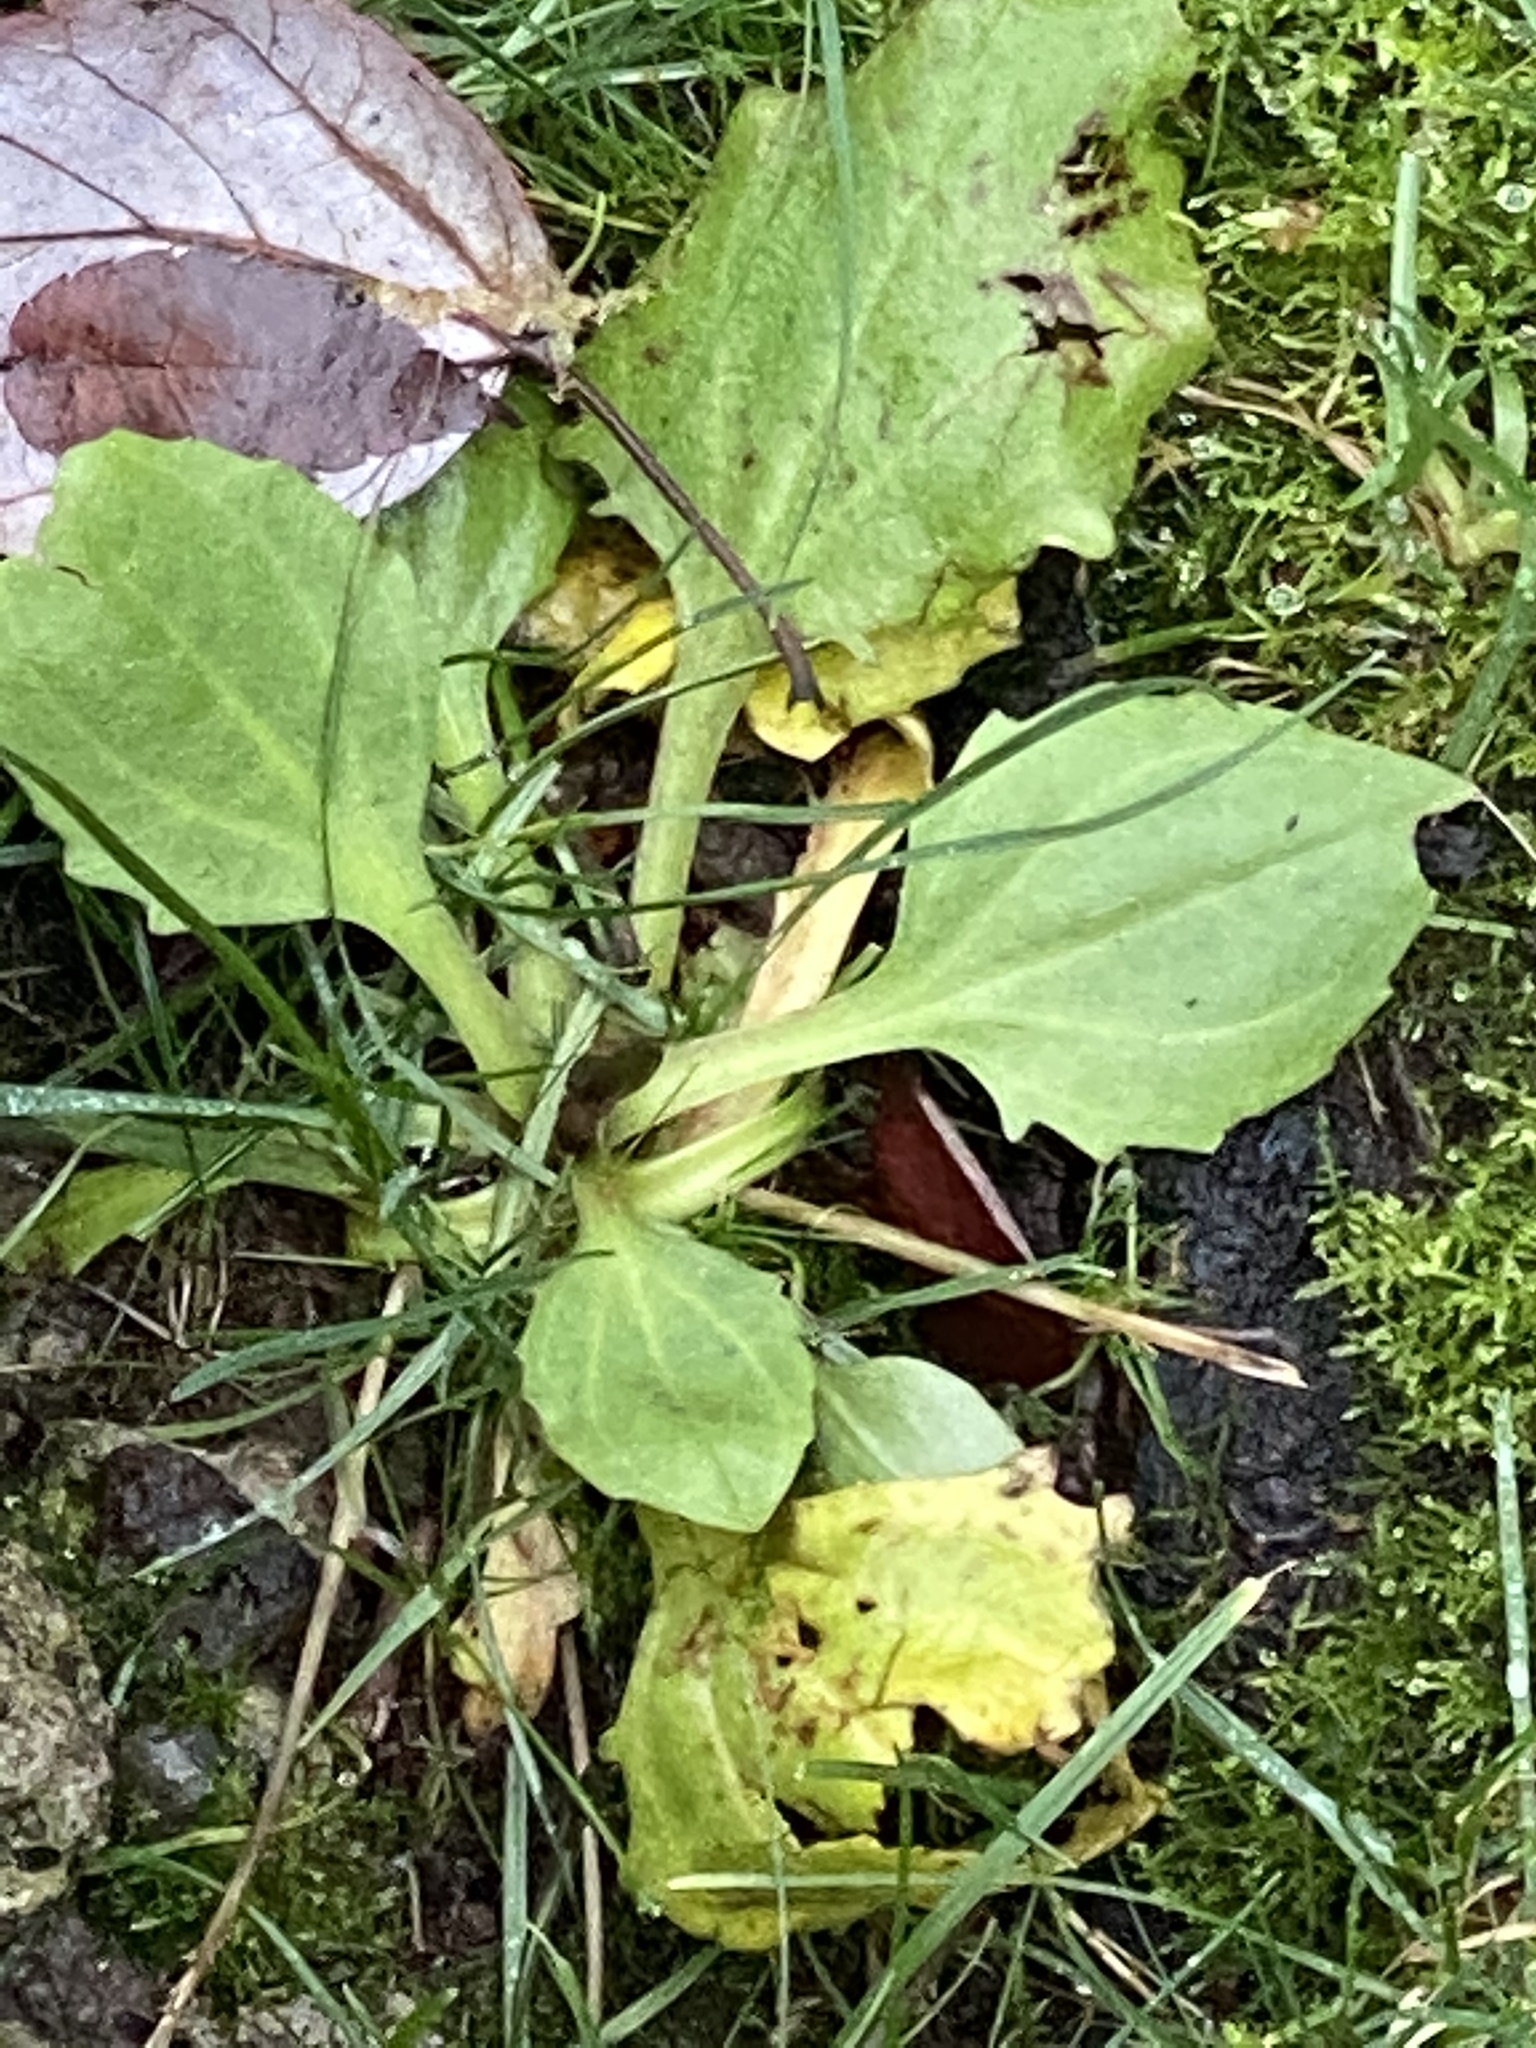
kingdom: Plantae
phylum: Tracheophyta
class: Magnoliopsida
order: Lamiales
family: Plantaginaceae
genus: Plantago
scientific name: Plantago major
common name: Common plantain
